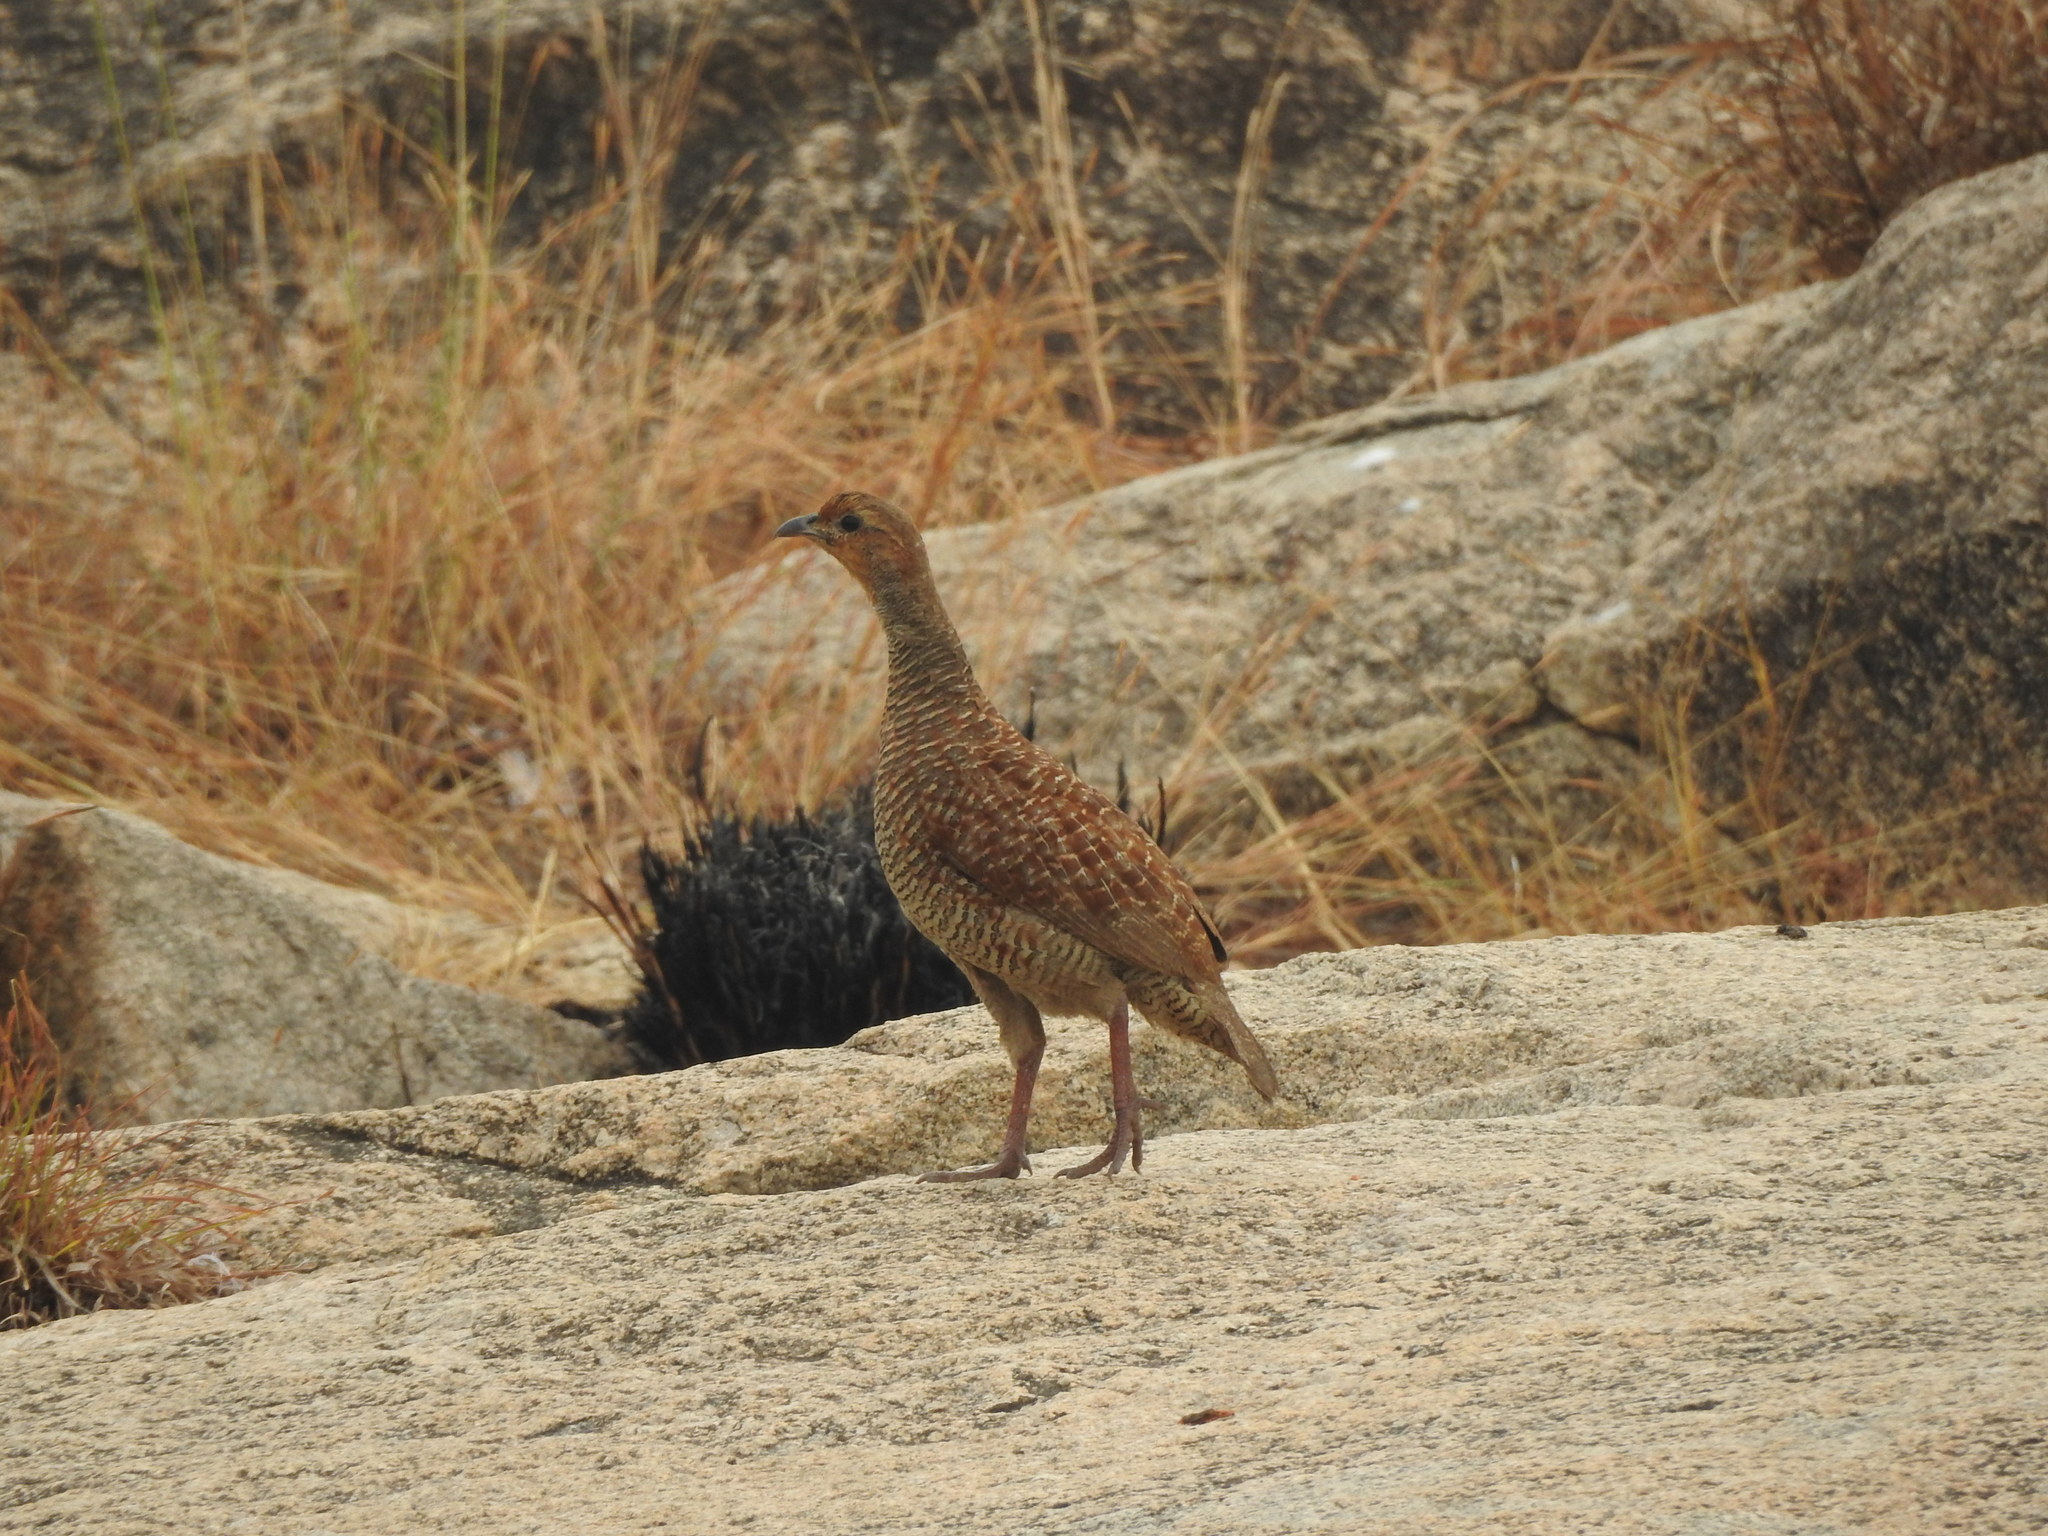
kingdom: Animalia
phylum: Chordata
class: Aves
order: Galliformes
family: Phasianidae
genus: Ortygornis
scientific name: Ortygornis pondicerianus
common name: Grey francolin
